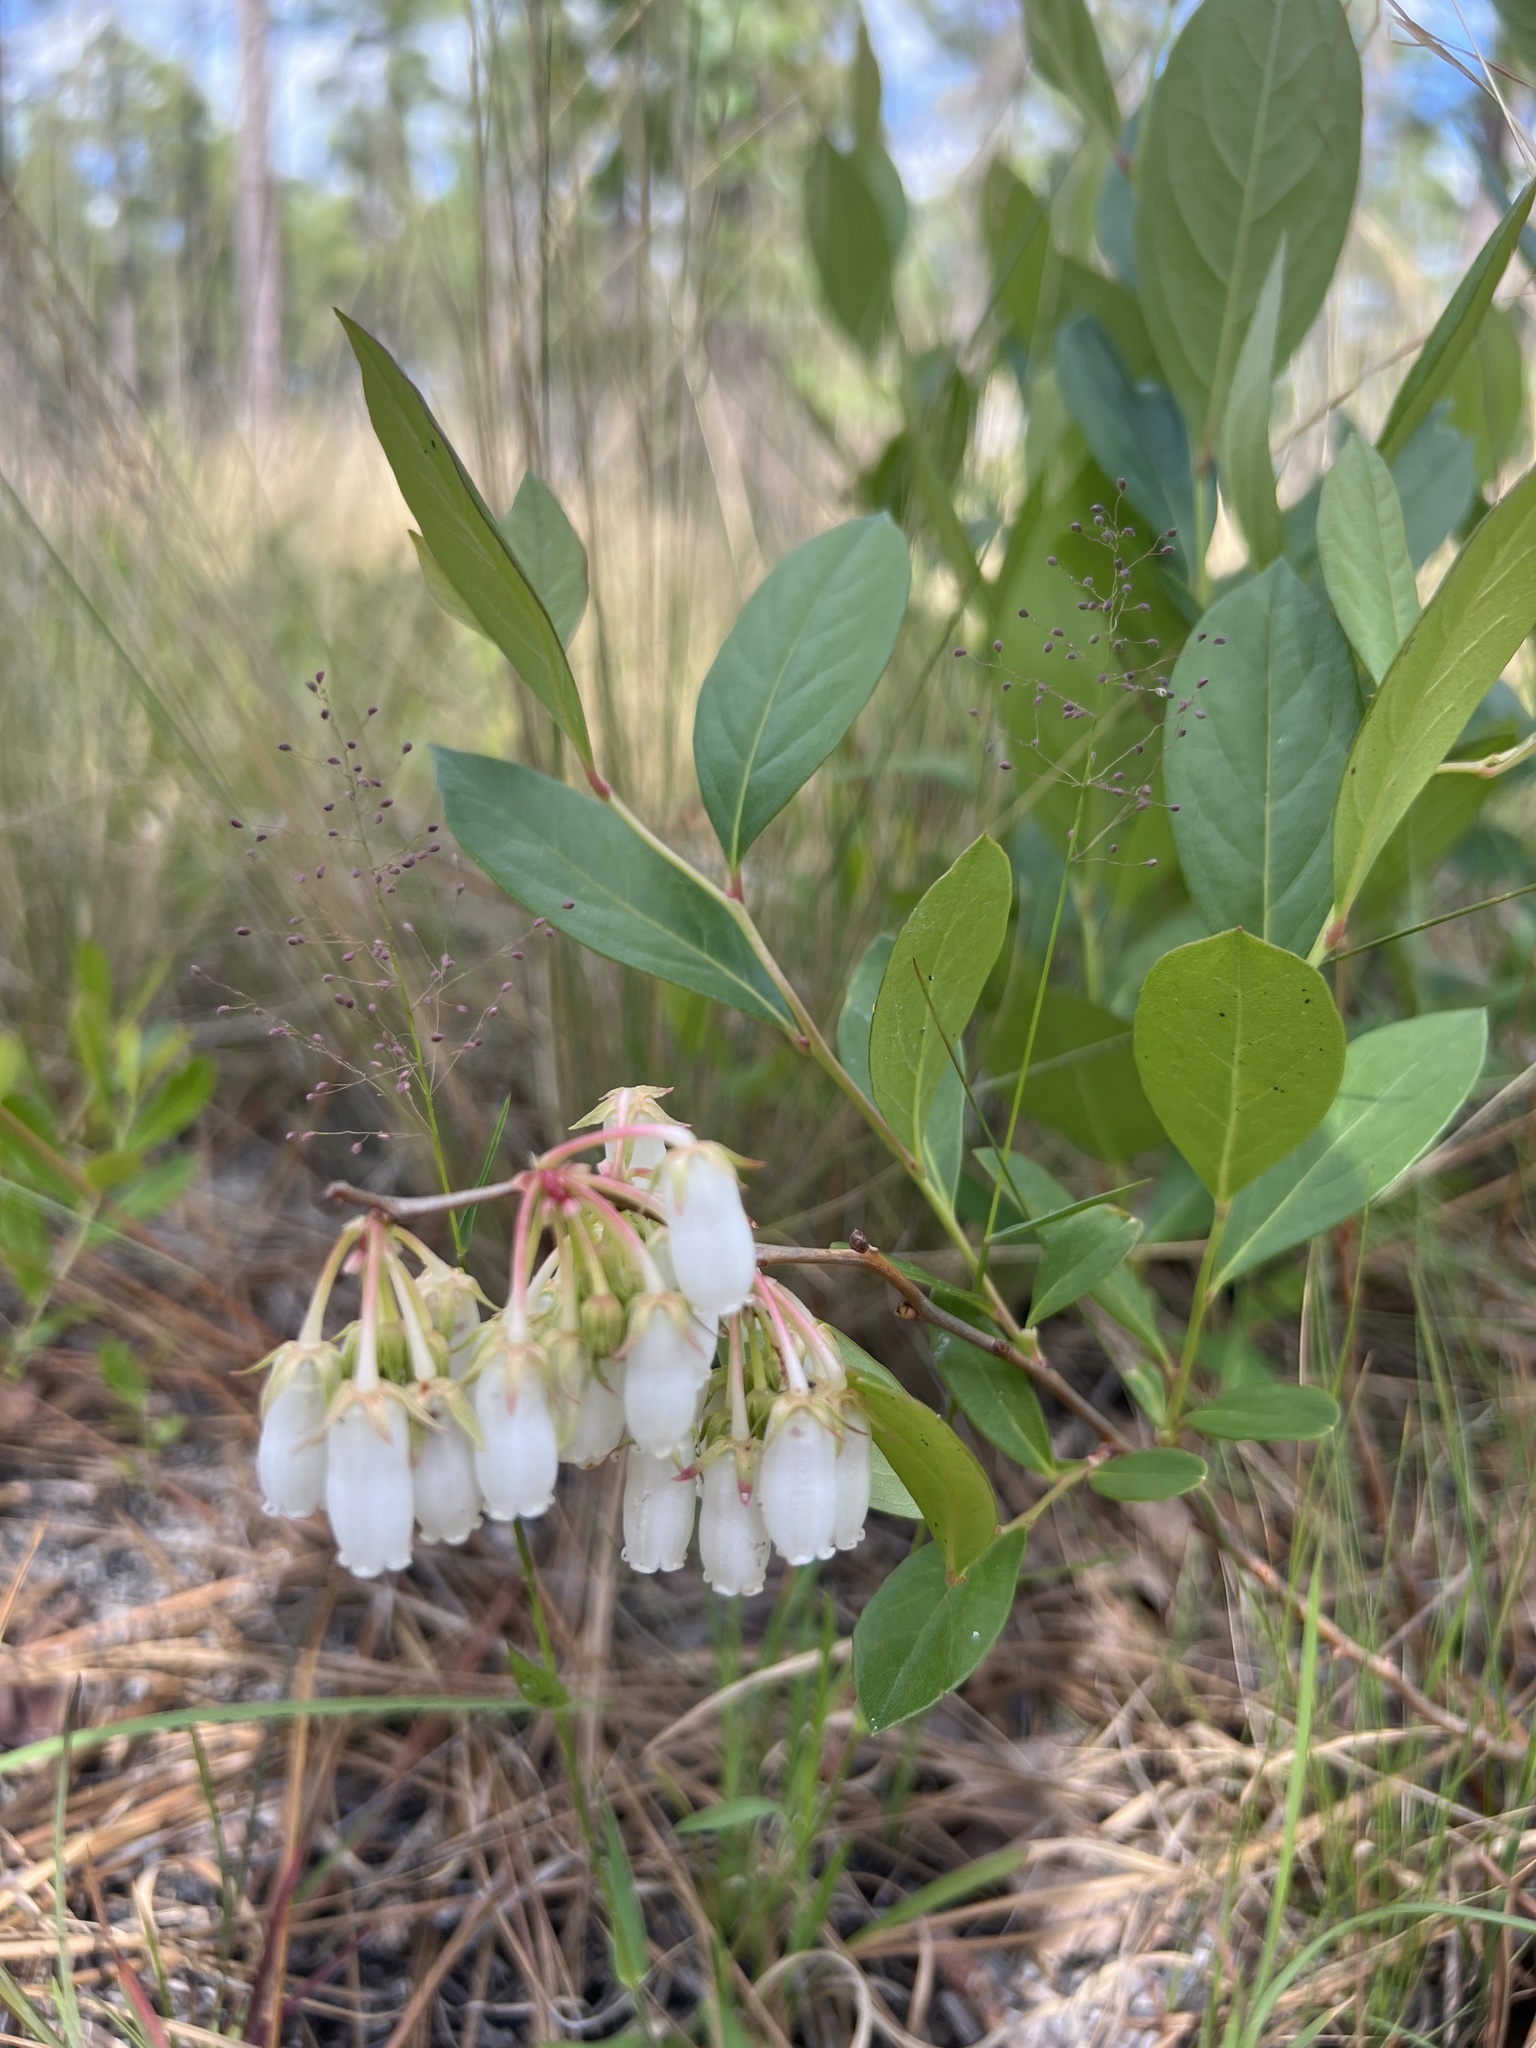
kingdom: Plantae
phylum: Tracheophyta
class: Magnoliopsida
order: Ericales
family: Ericaceae
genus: Lyonia
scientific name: Lyonia mariana
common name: Staggerbush
